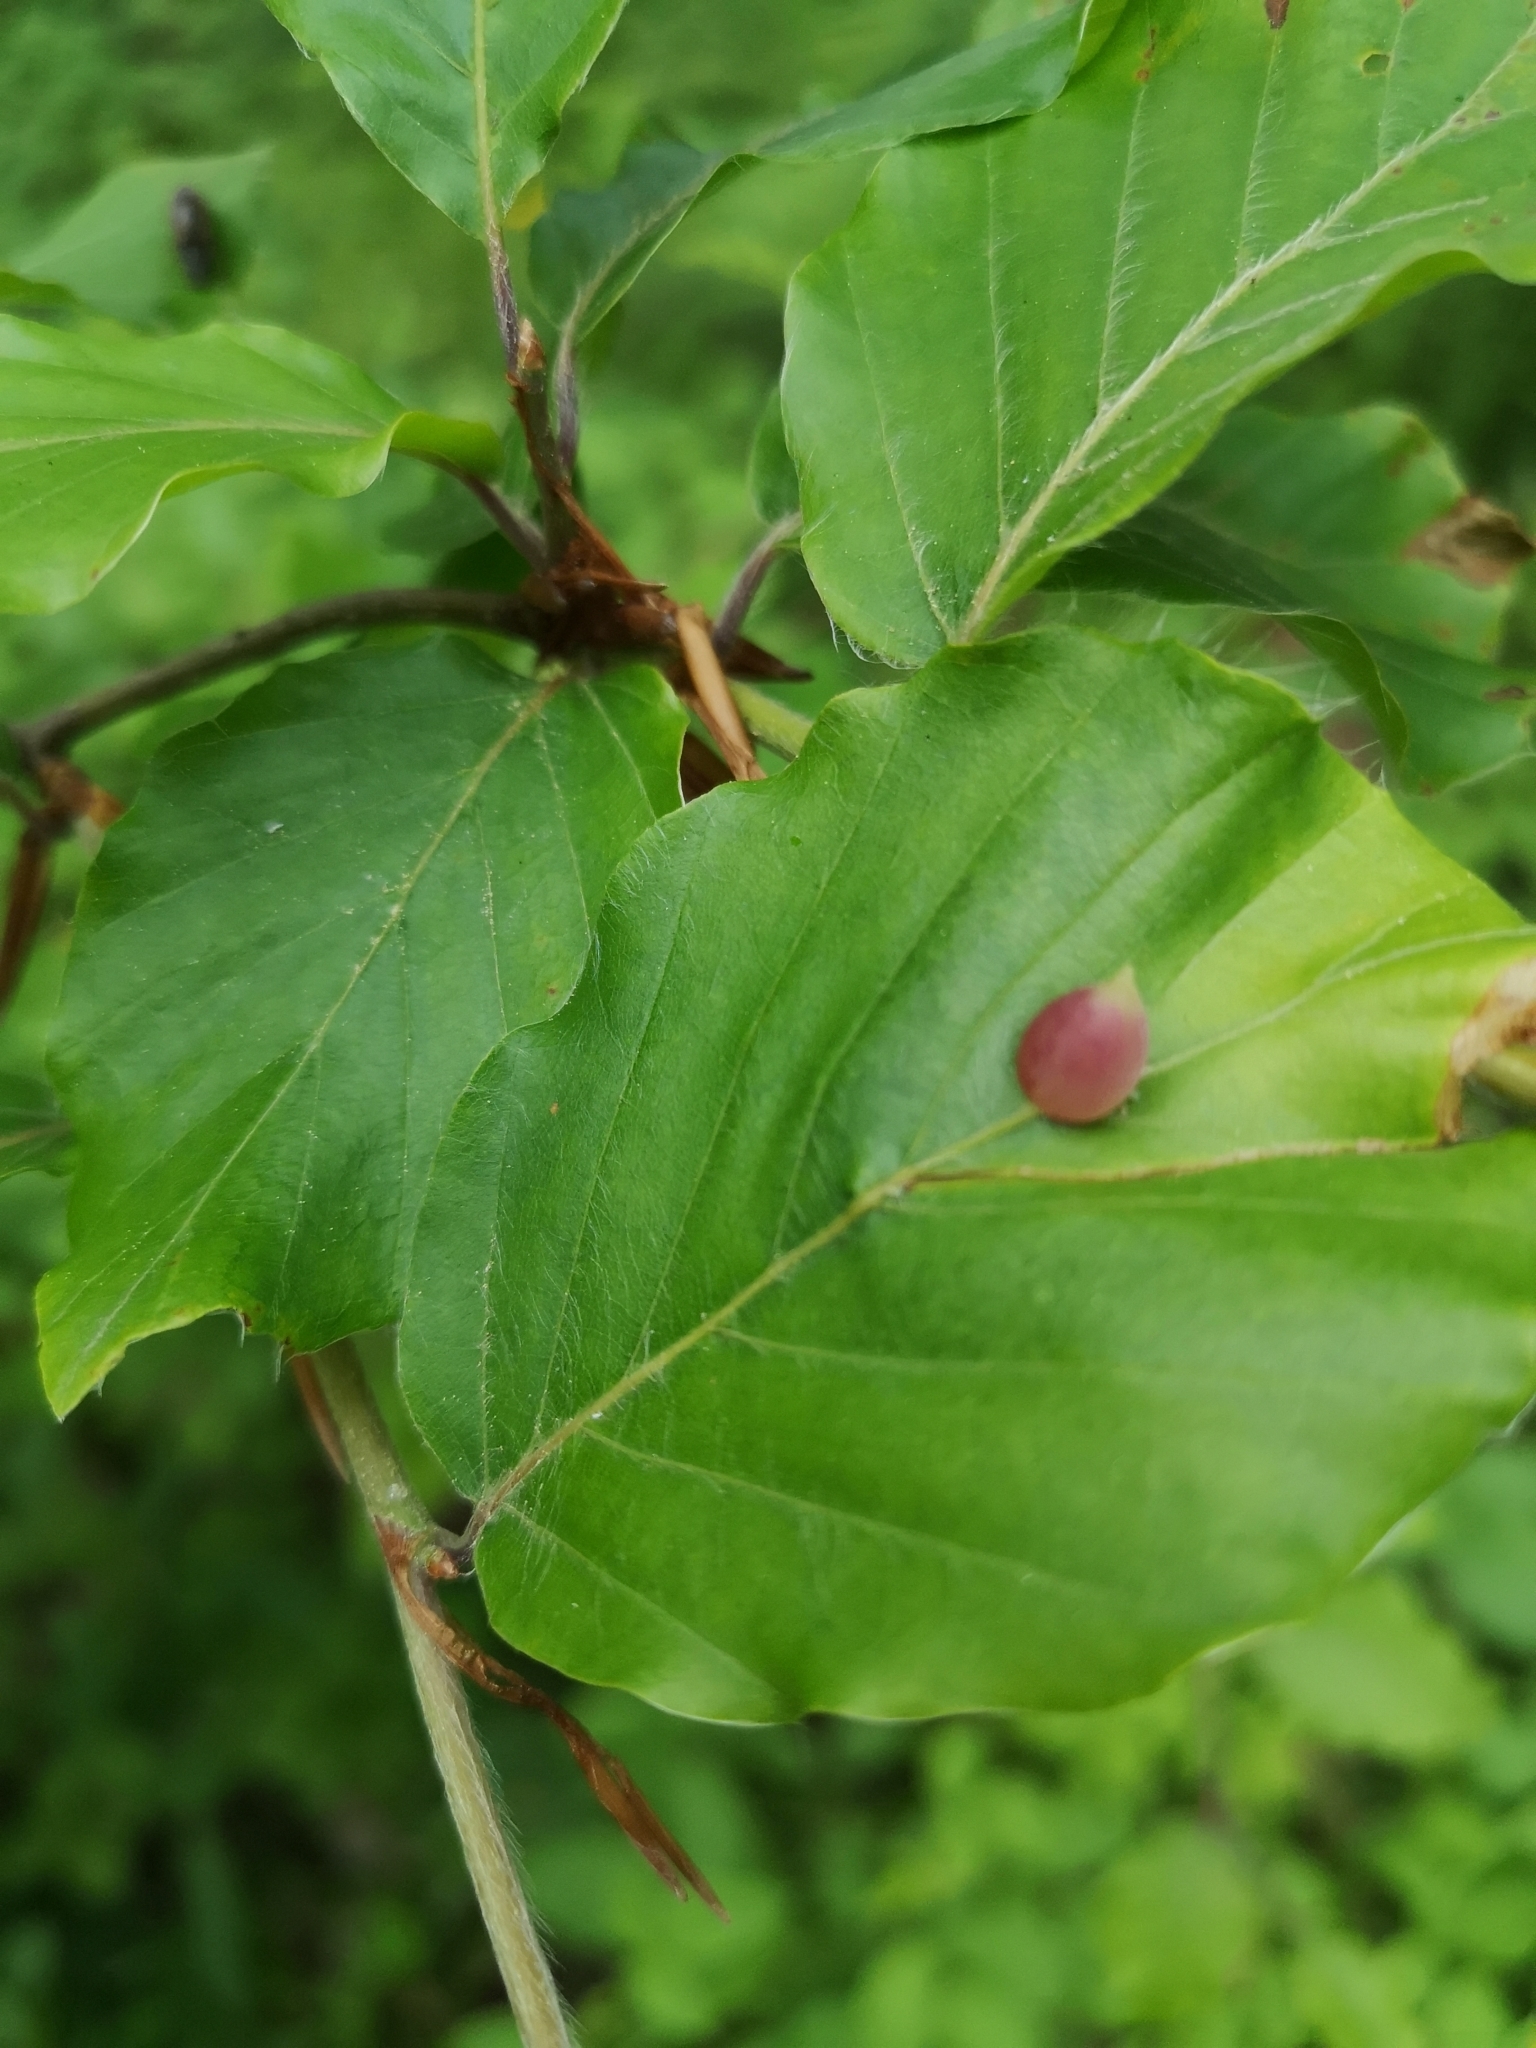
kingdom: Animalia
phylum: Arthropoda
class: Insecta
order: Diptera
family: Cecidomyiidae
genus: Mikiola
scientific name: Mikiola fagi
